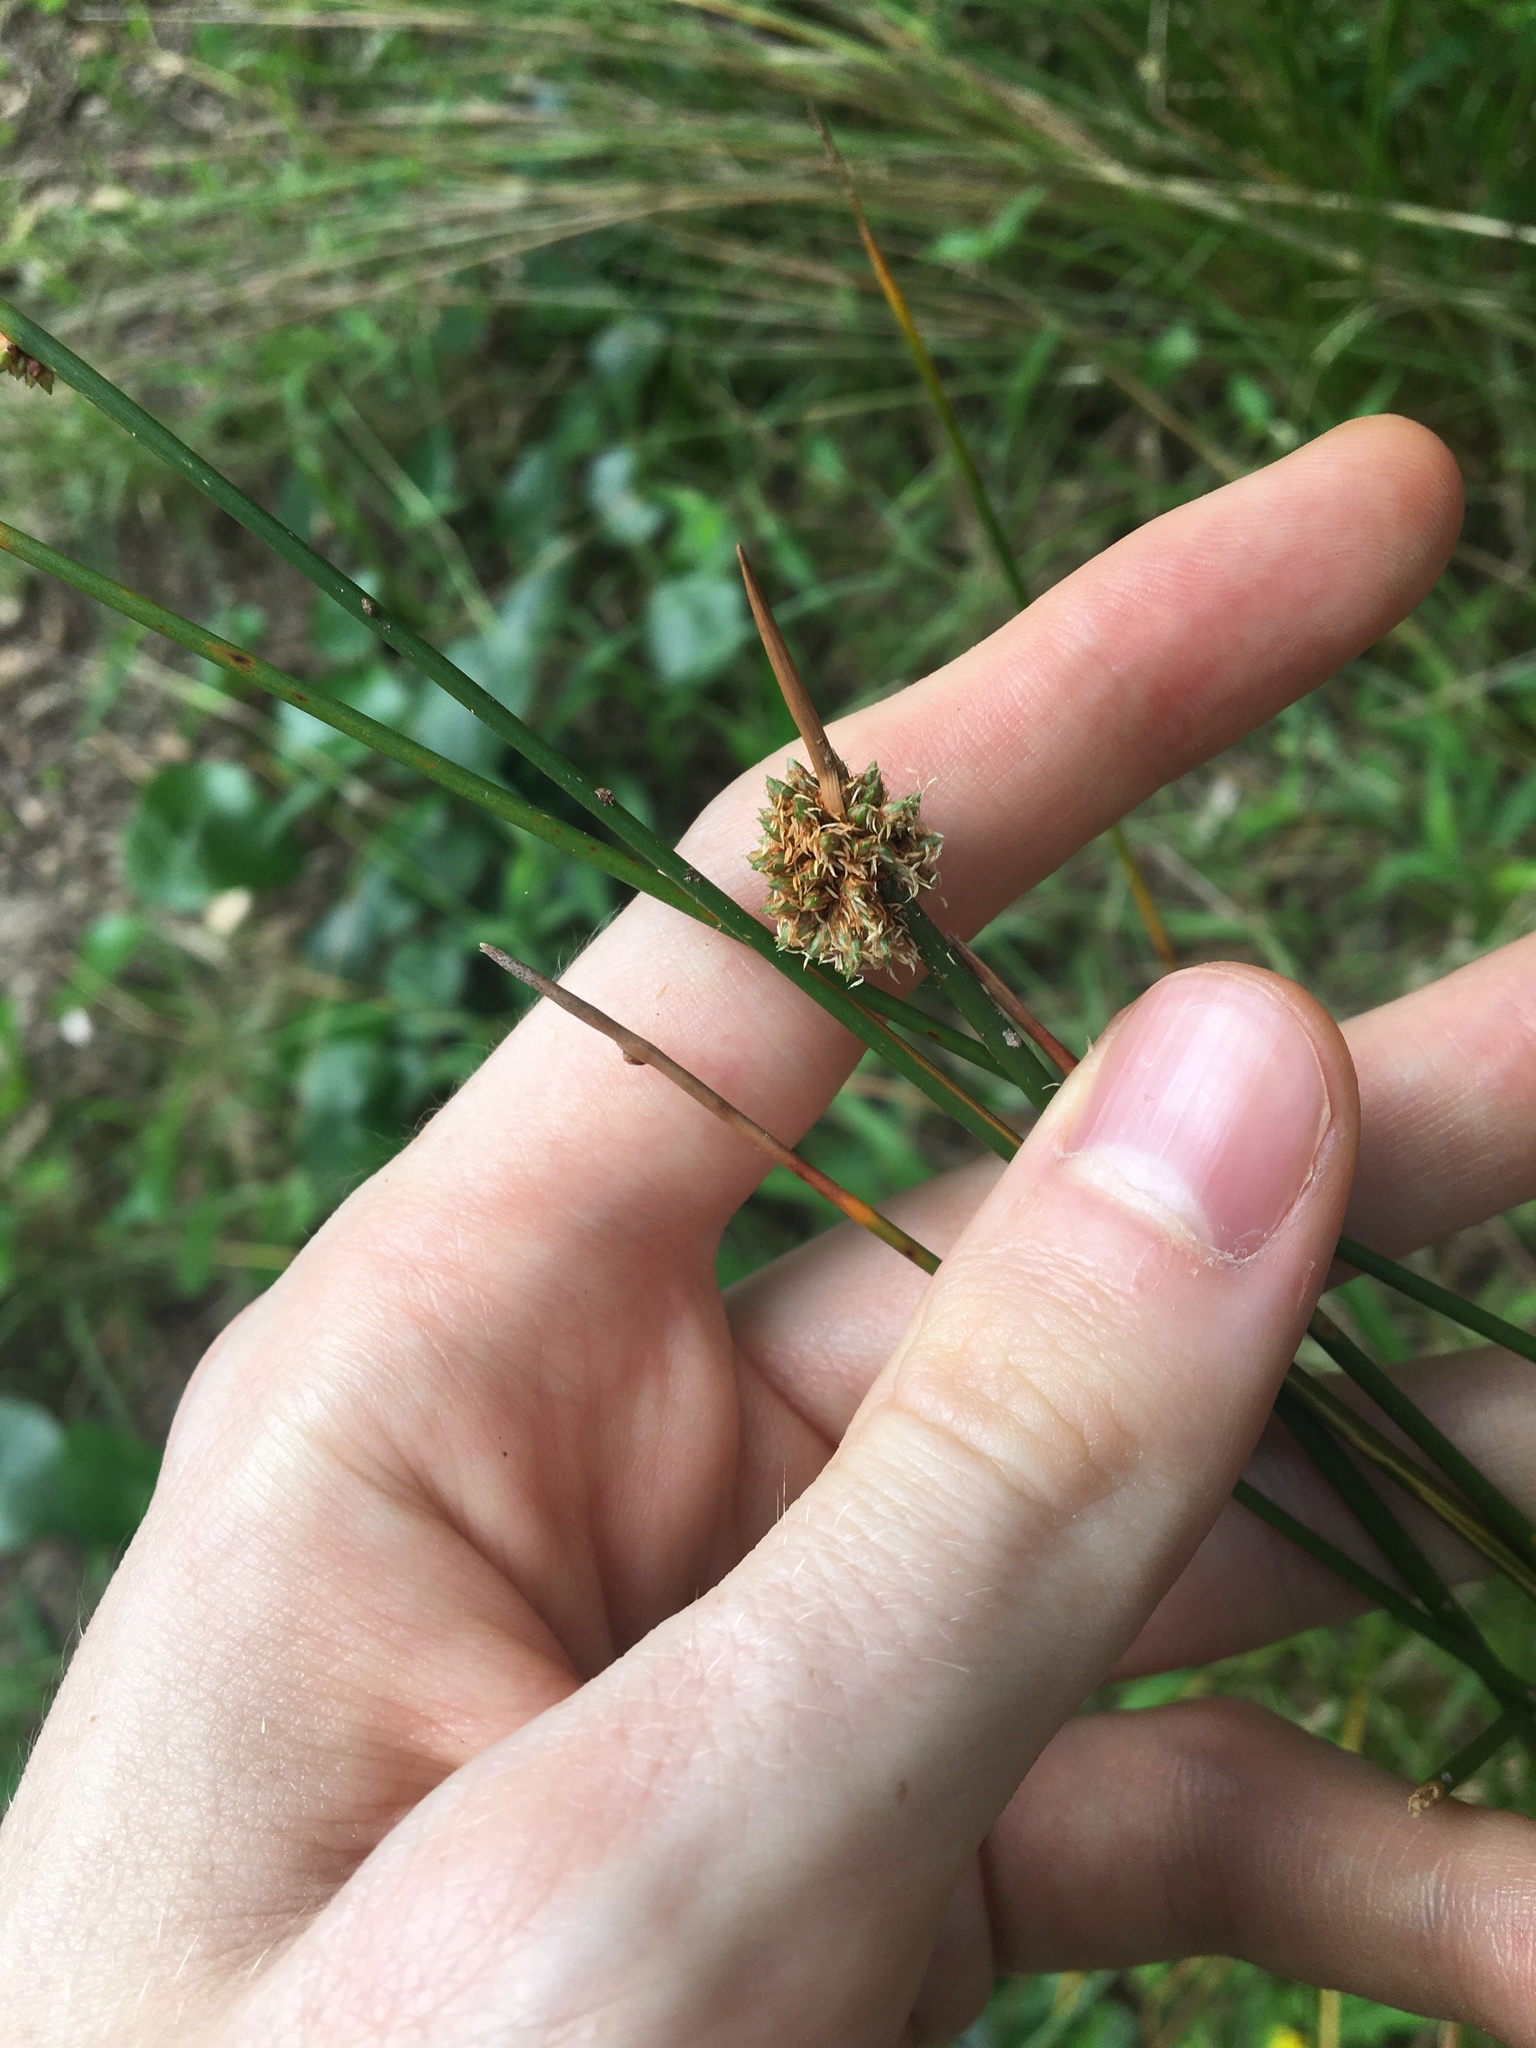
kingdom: Plantae
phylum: Tracheophyta
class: Liliopsida
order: Poales
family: Cyperaceae
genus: Ficinia
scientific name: Ficinia nodosa
